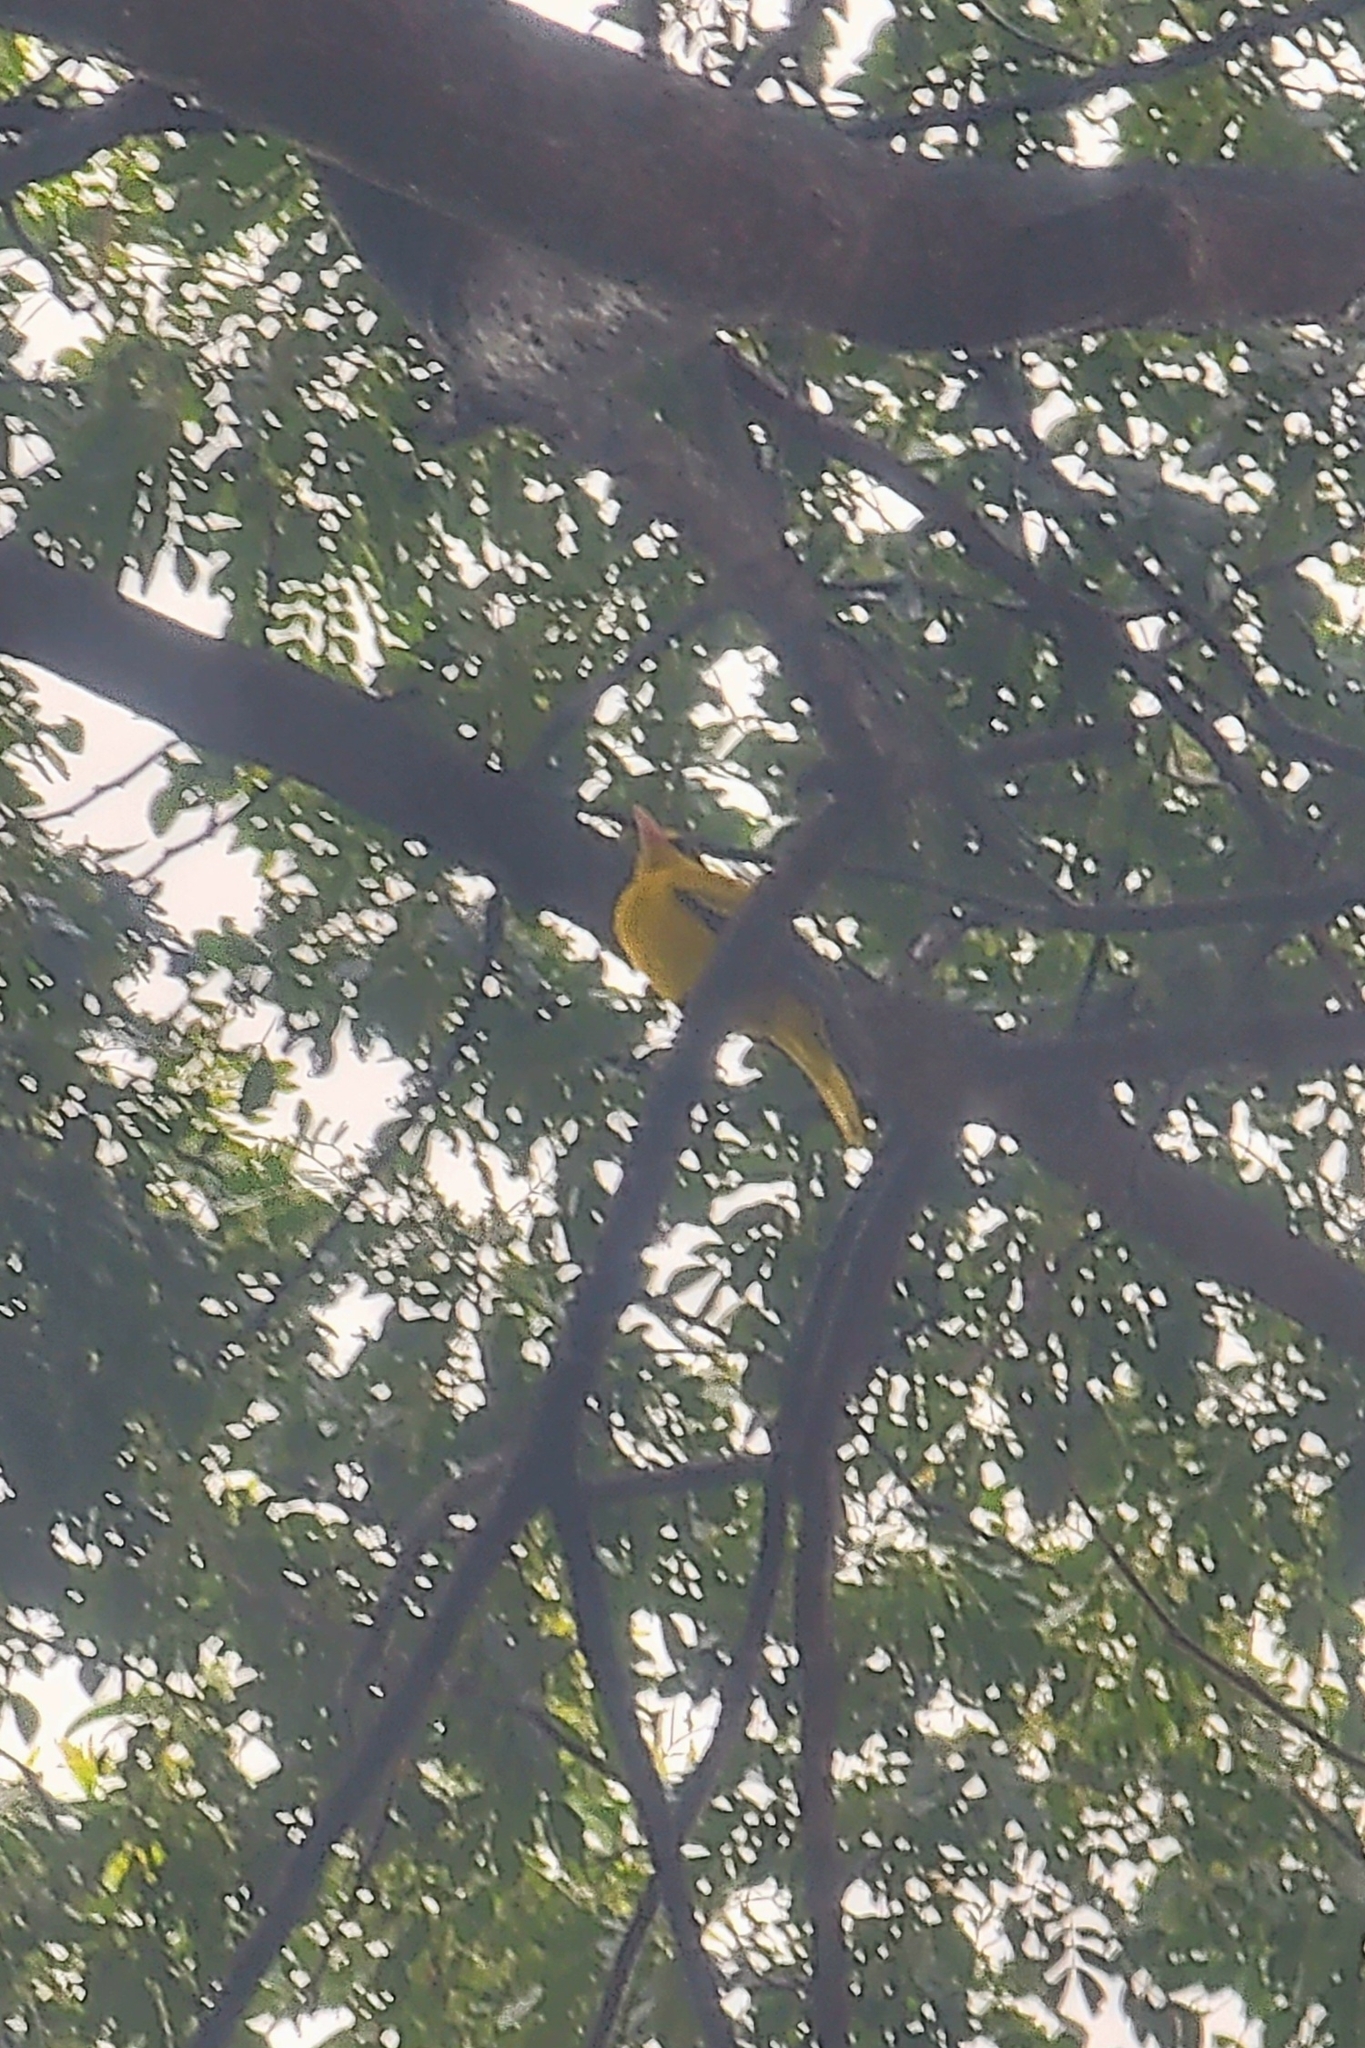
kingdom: Animalia
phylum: Chordata
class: Aves
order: Passeriformes
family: Oriolidae
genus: Oriolus
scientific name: Oriolus chinensis
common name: Black-naped oriole
